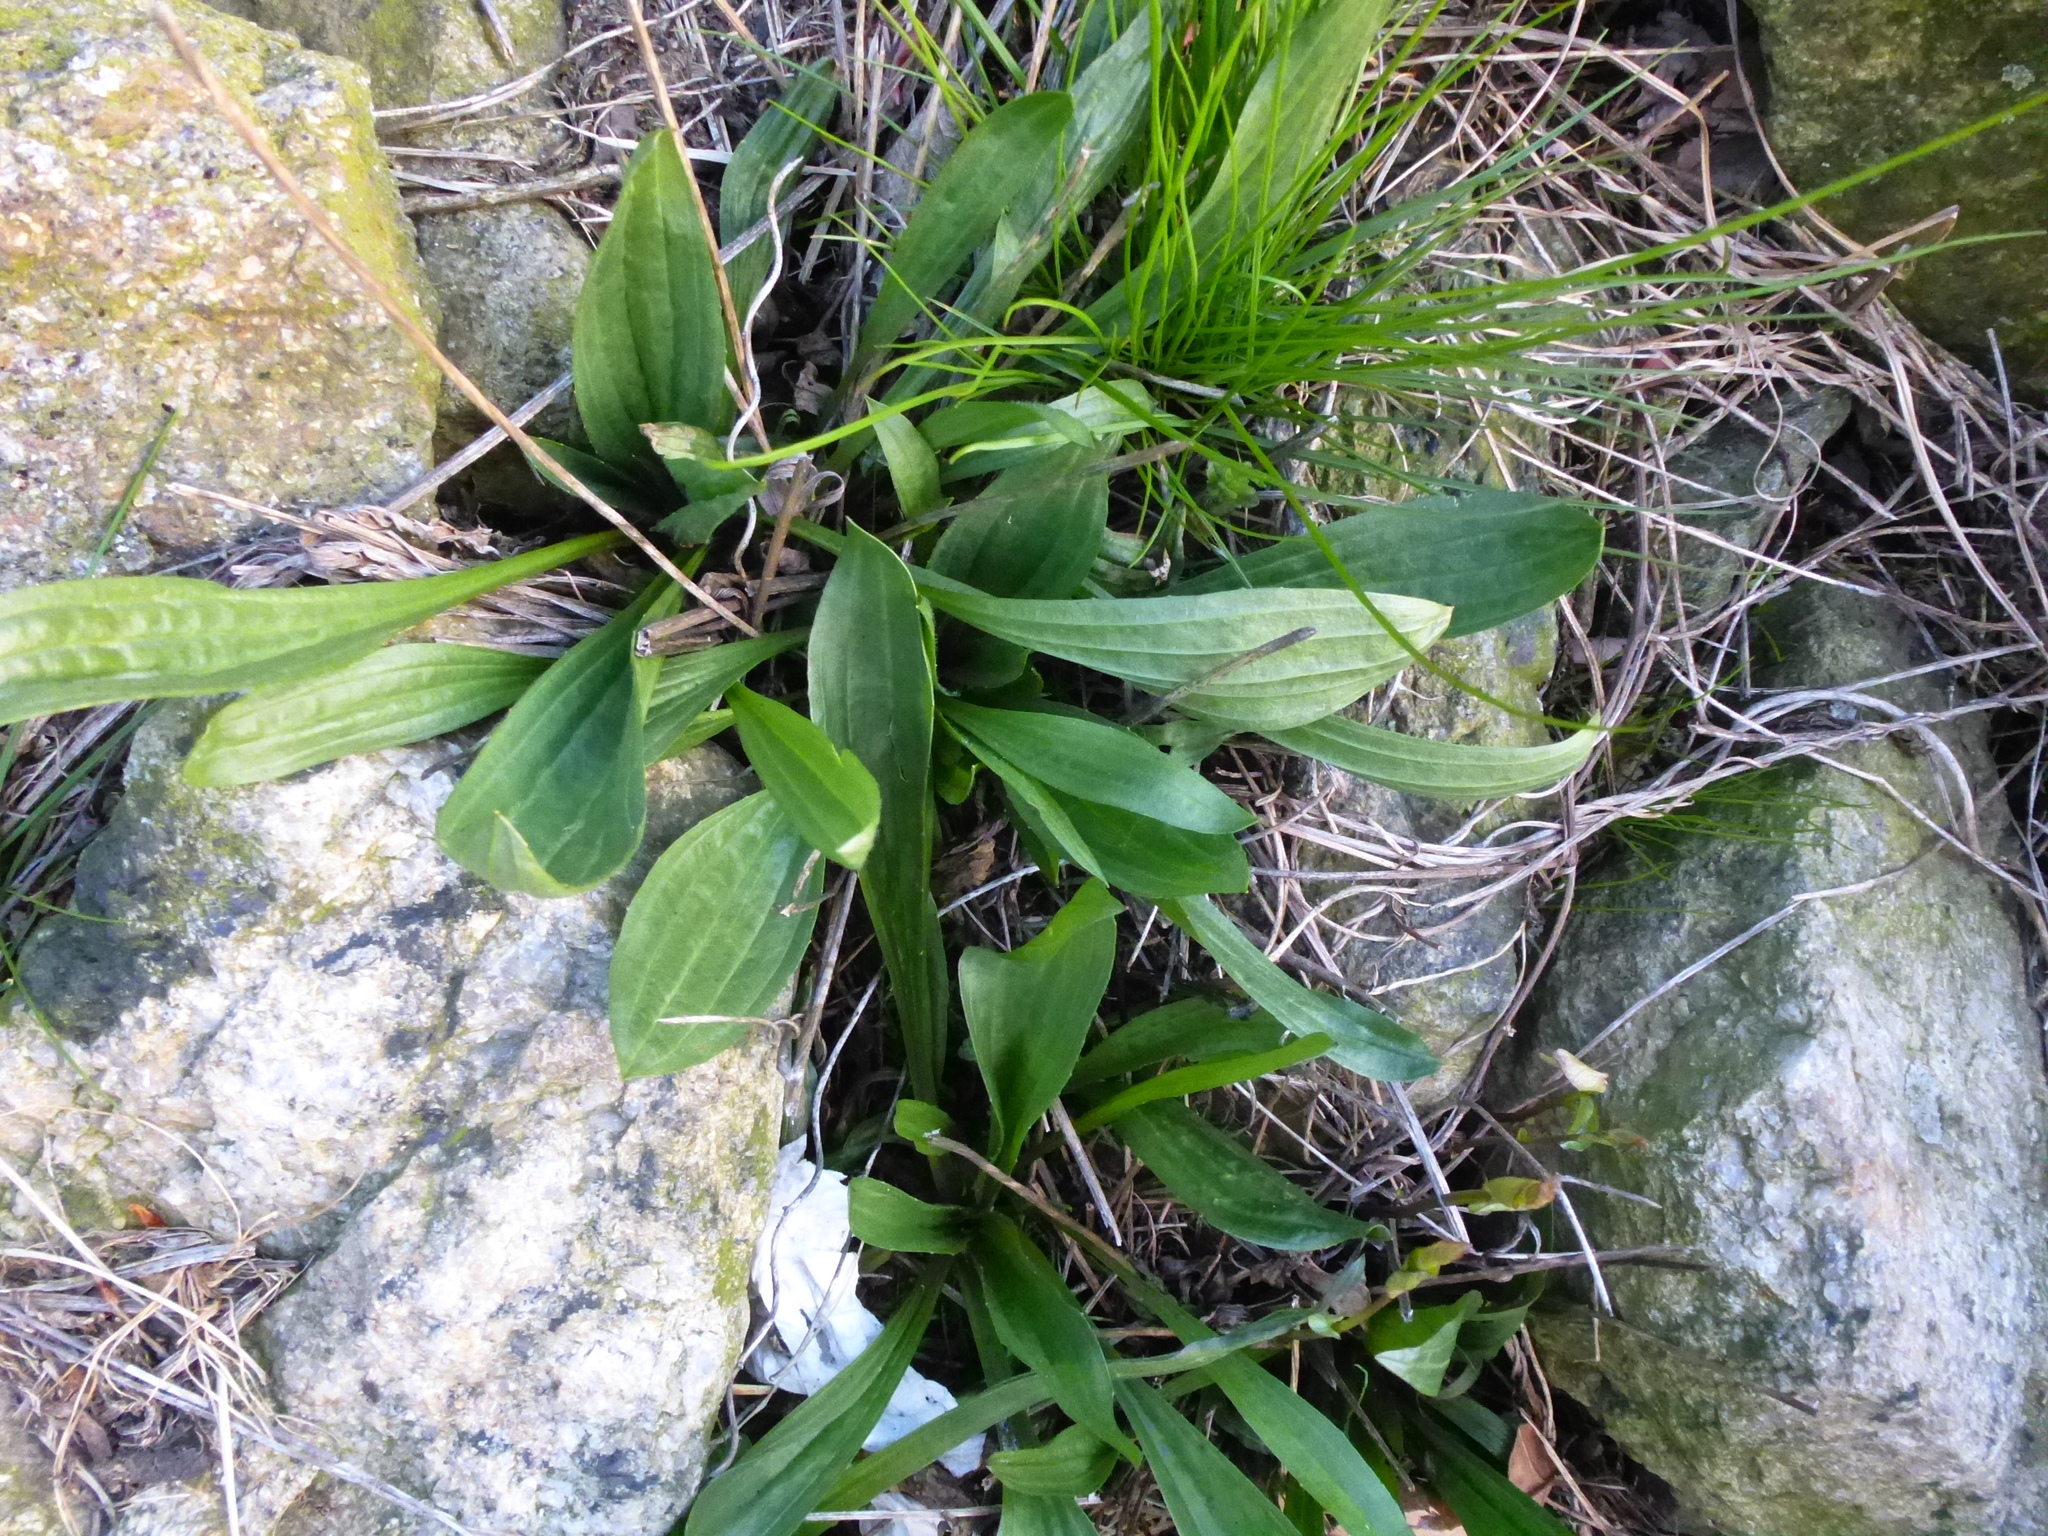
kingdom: Plantae
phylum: Tracheophyta
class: Magnoliopsida
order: Lamiales
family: Plantaginaceae
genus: Plantago
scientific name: Plantago lanceolata
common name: Ribwort plantain
